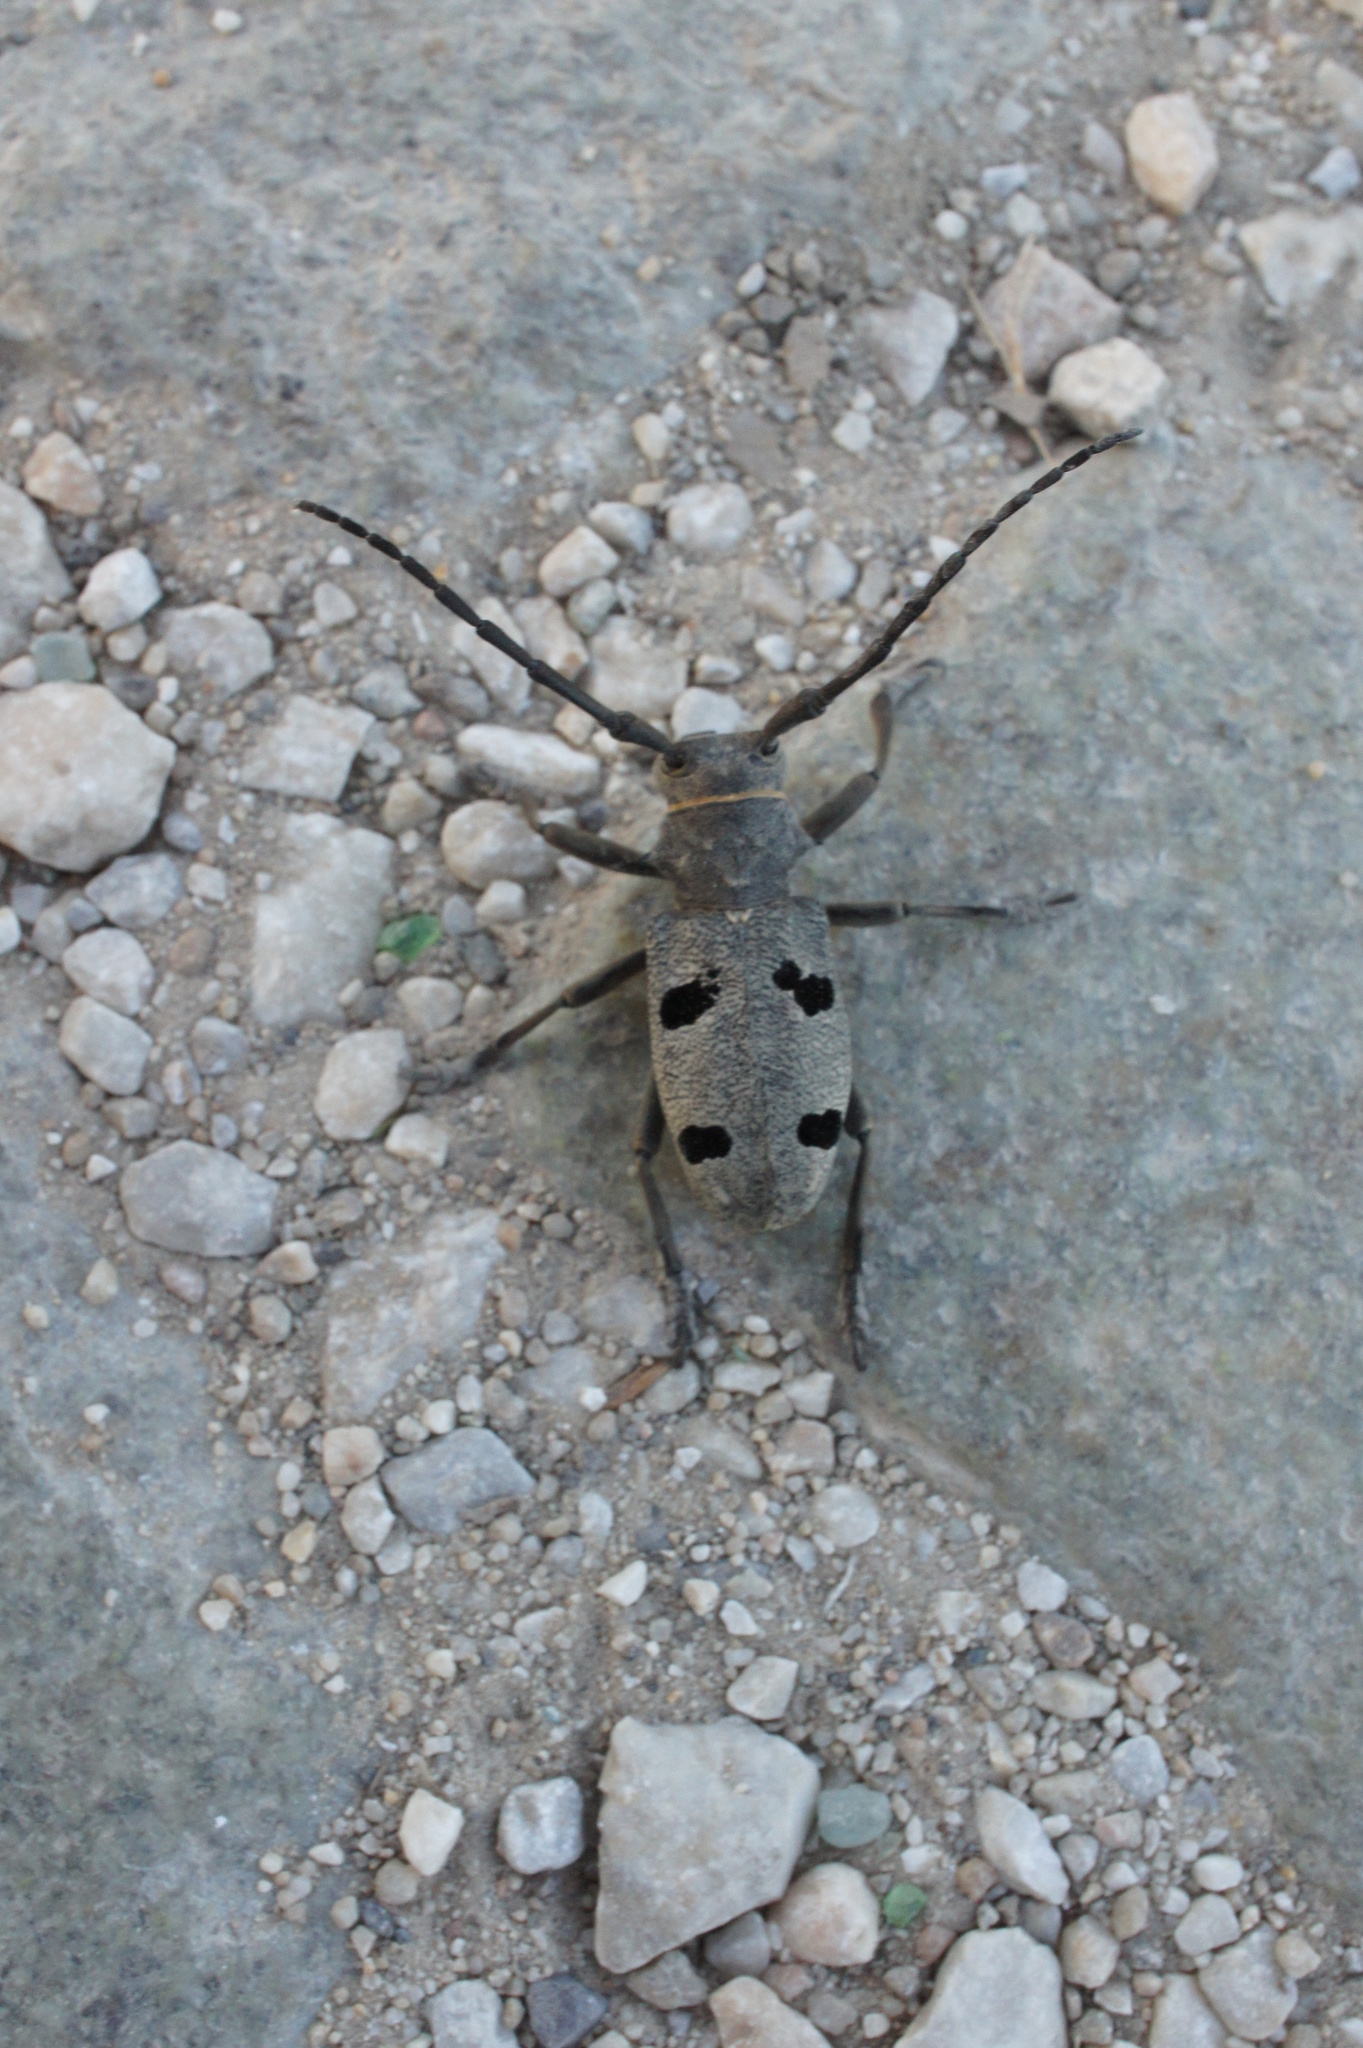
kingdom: Animalia
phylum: Arthropoda
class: Insecta
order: Coleoptera
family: Cerambycidae
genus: Morimus
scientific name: Morimus funereus
